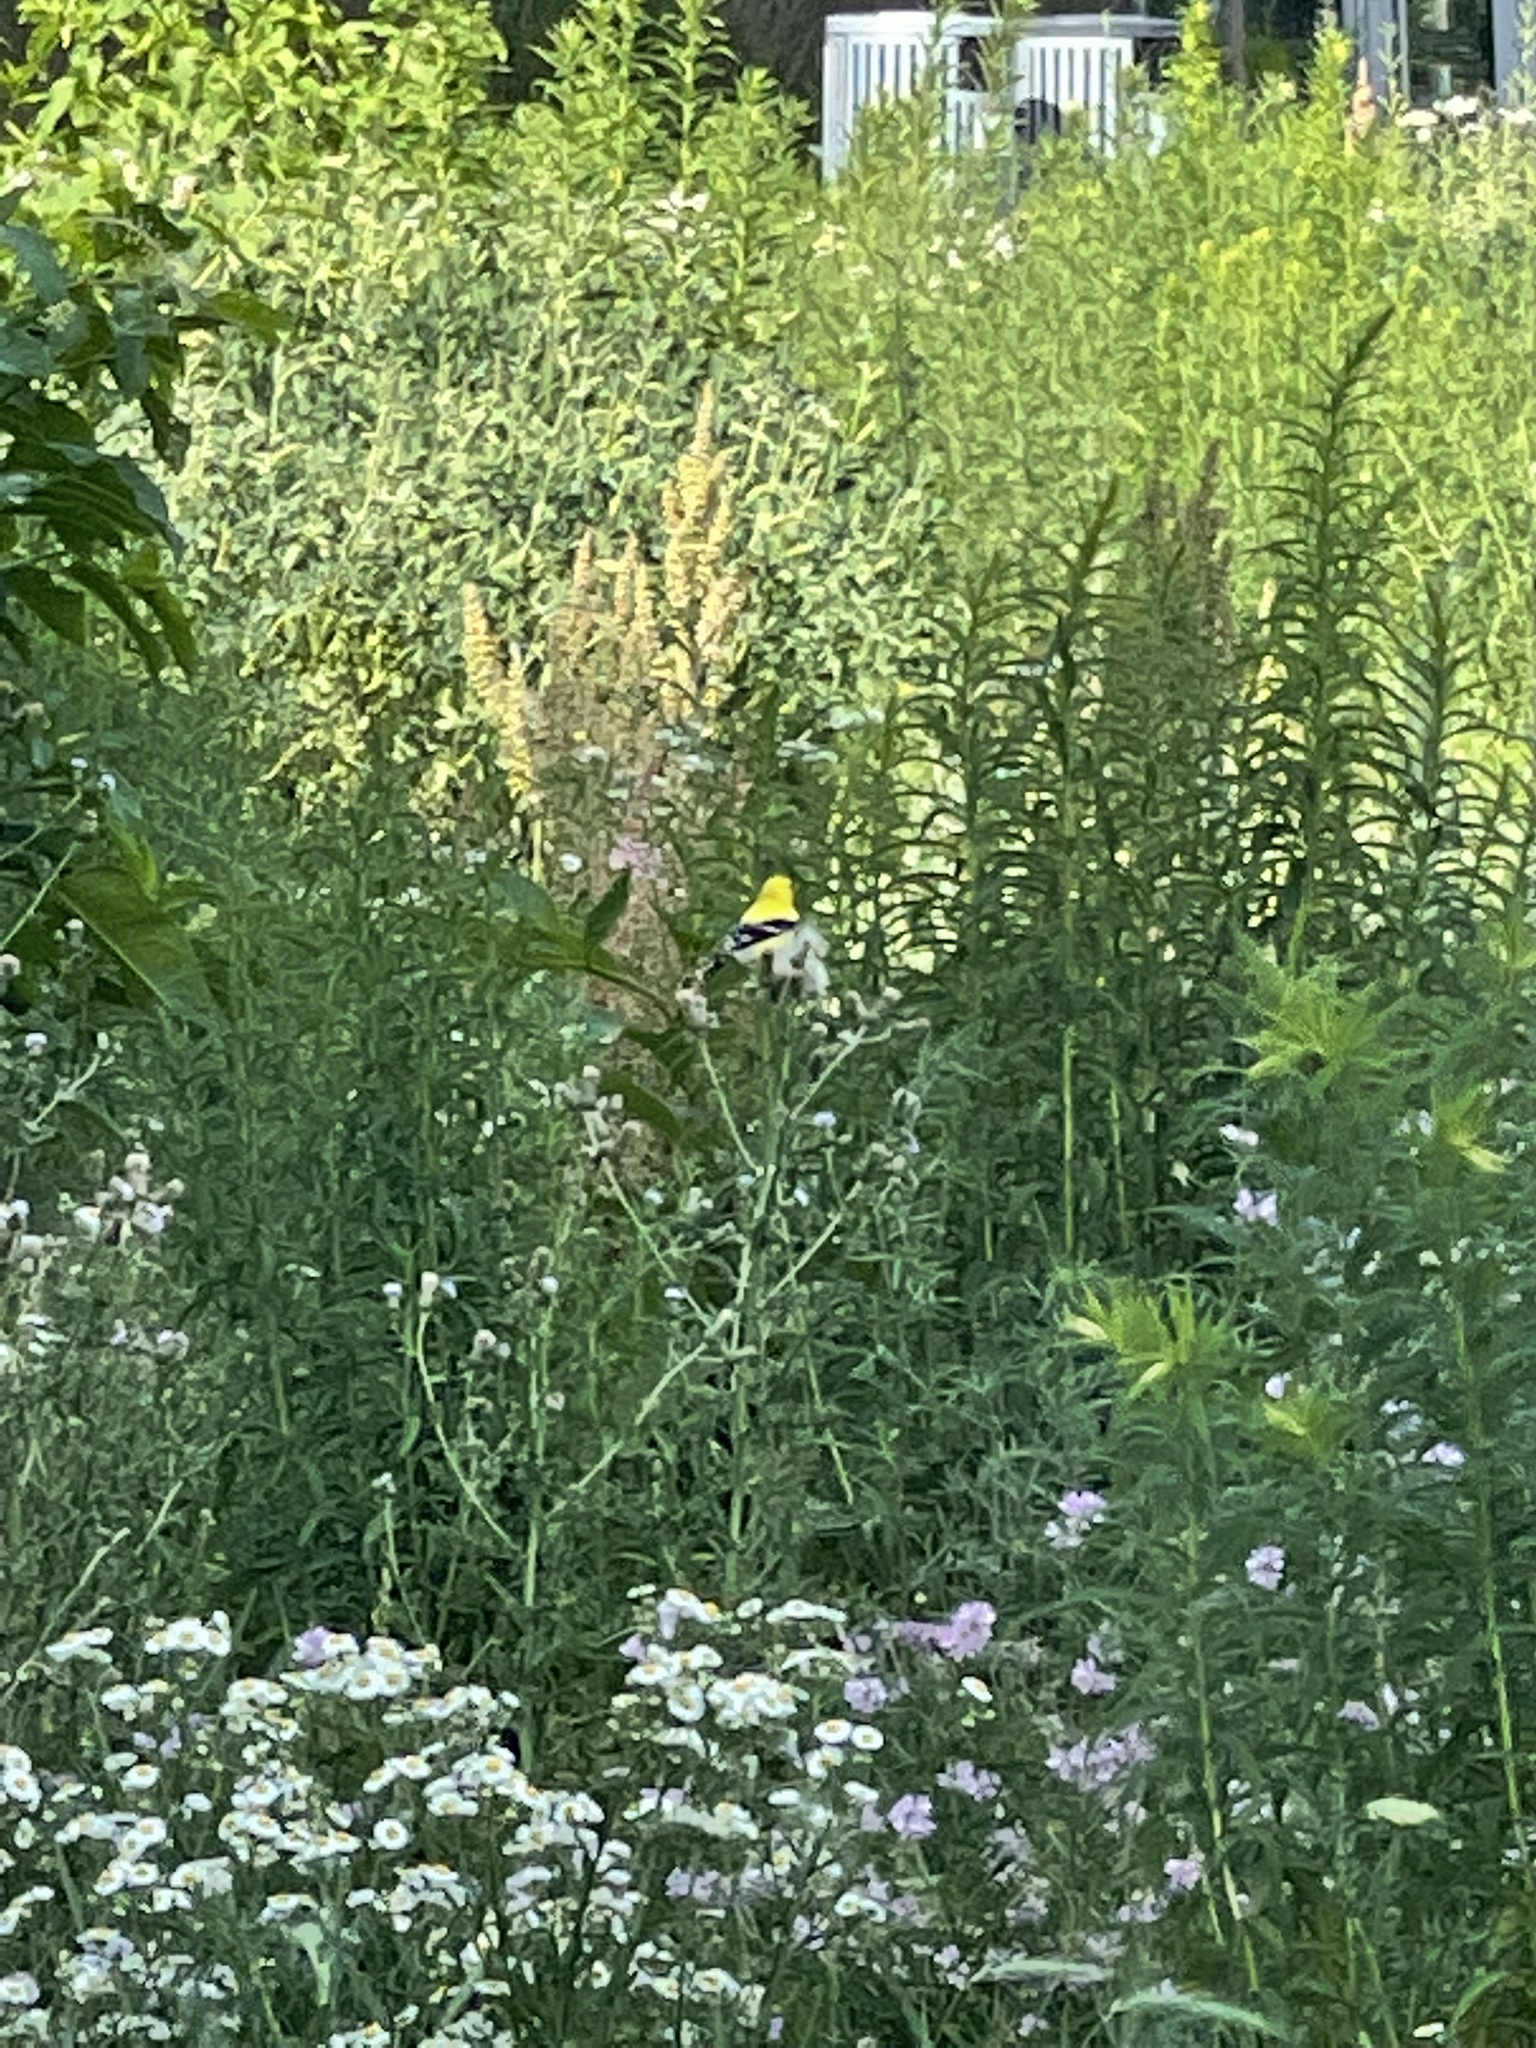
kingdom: Animalia
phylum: Chordata
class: Aves
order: Passeriformes
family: Fringillidae
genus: Spinus
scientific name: Spinus tristis
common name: American goldfinch
